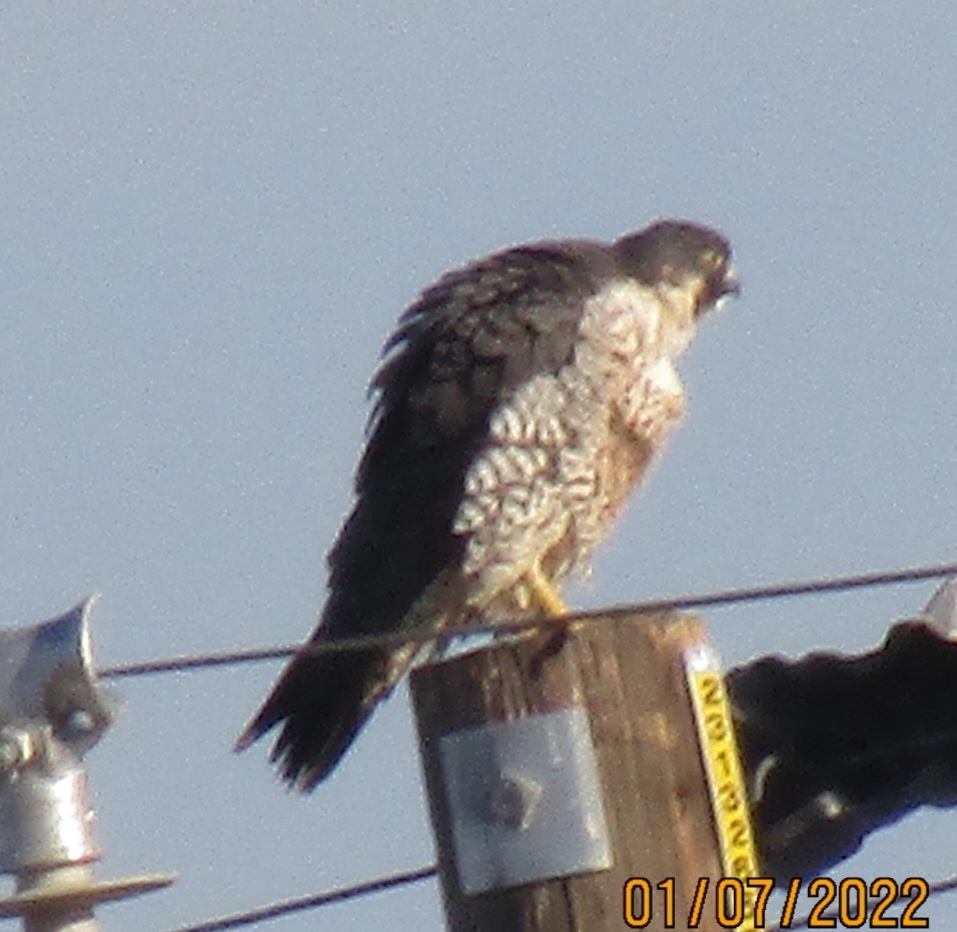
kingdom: Animalia
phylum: Chordata
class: Aves
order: Falconiformes
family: Falconidae
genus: Falco
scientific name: Falco peregrinus
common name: Peregrine falcon
